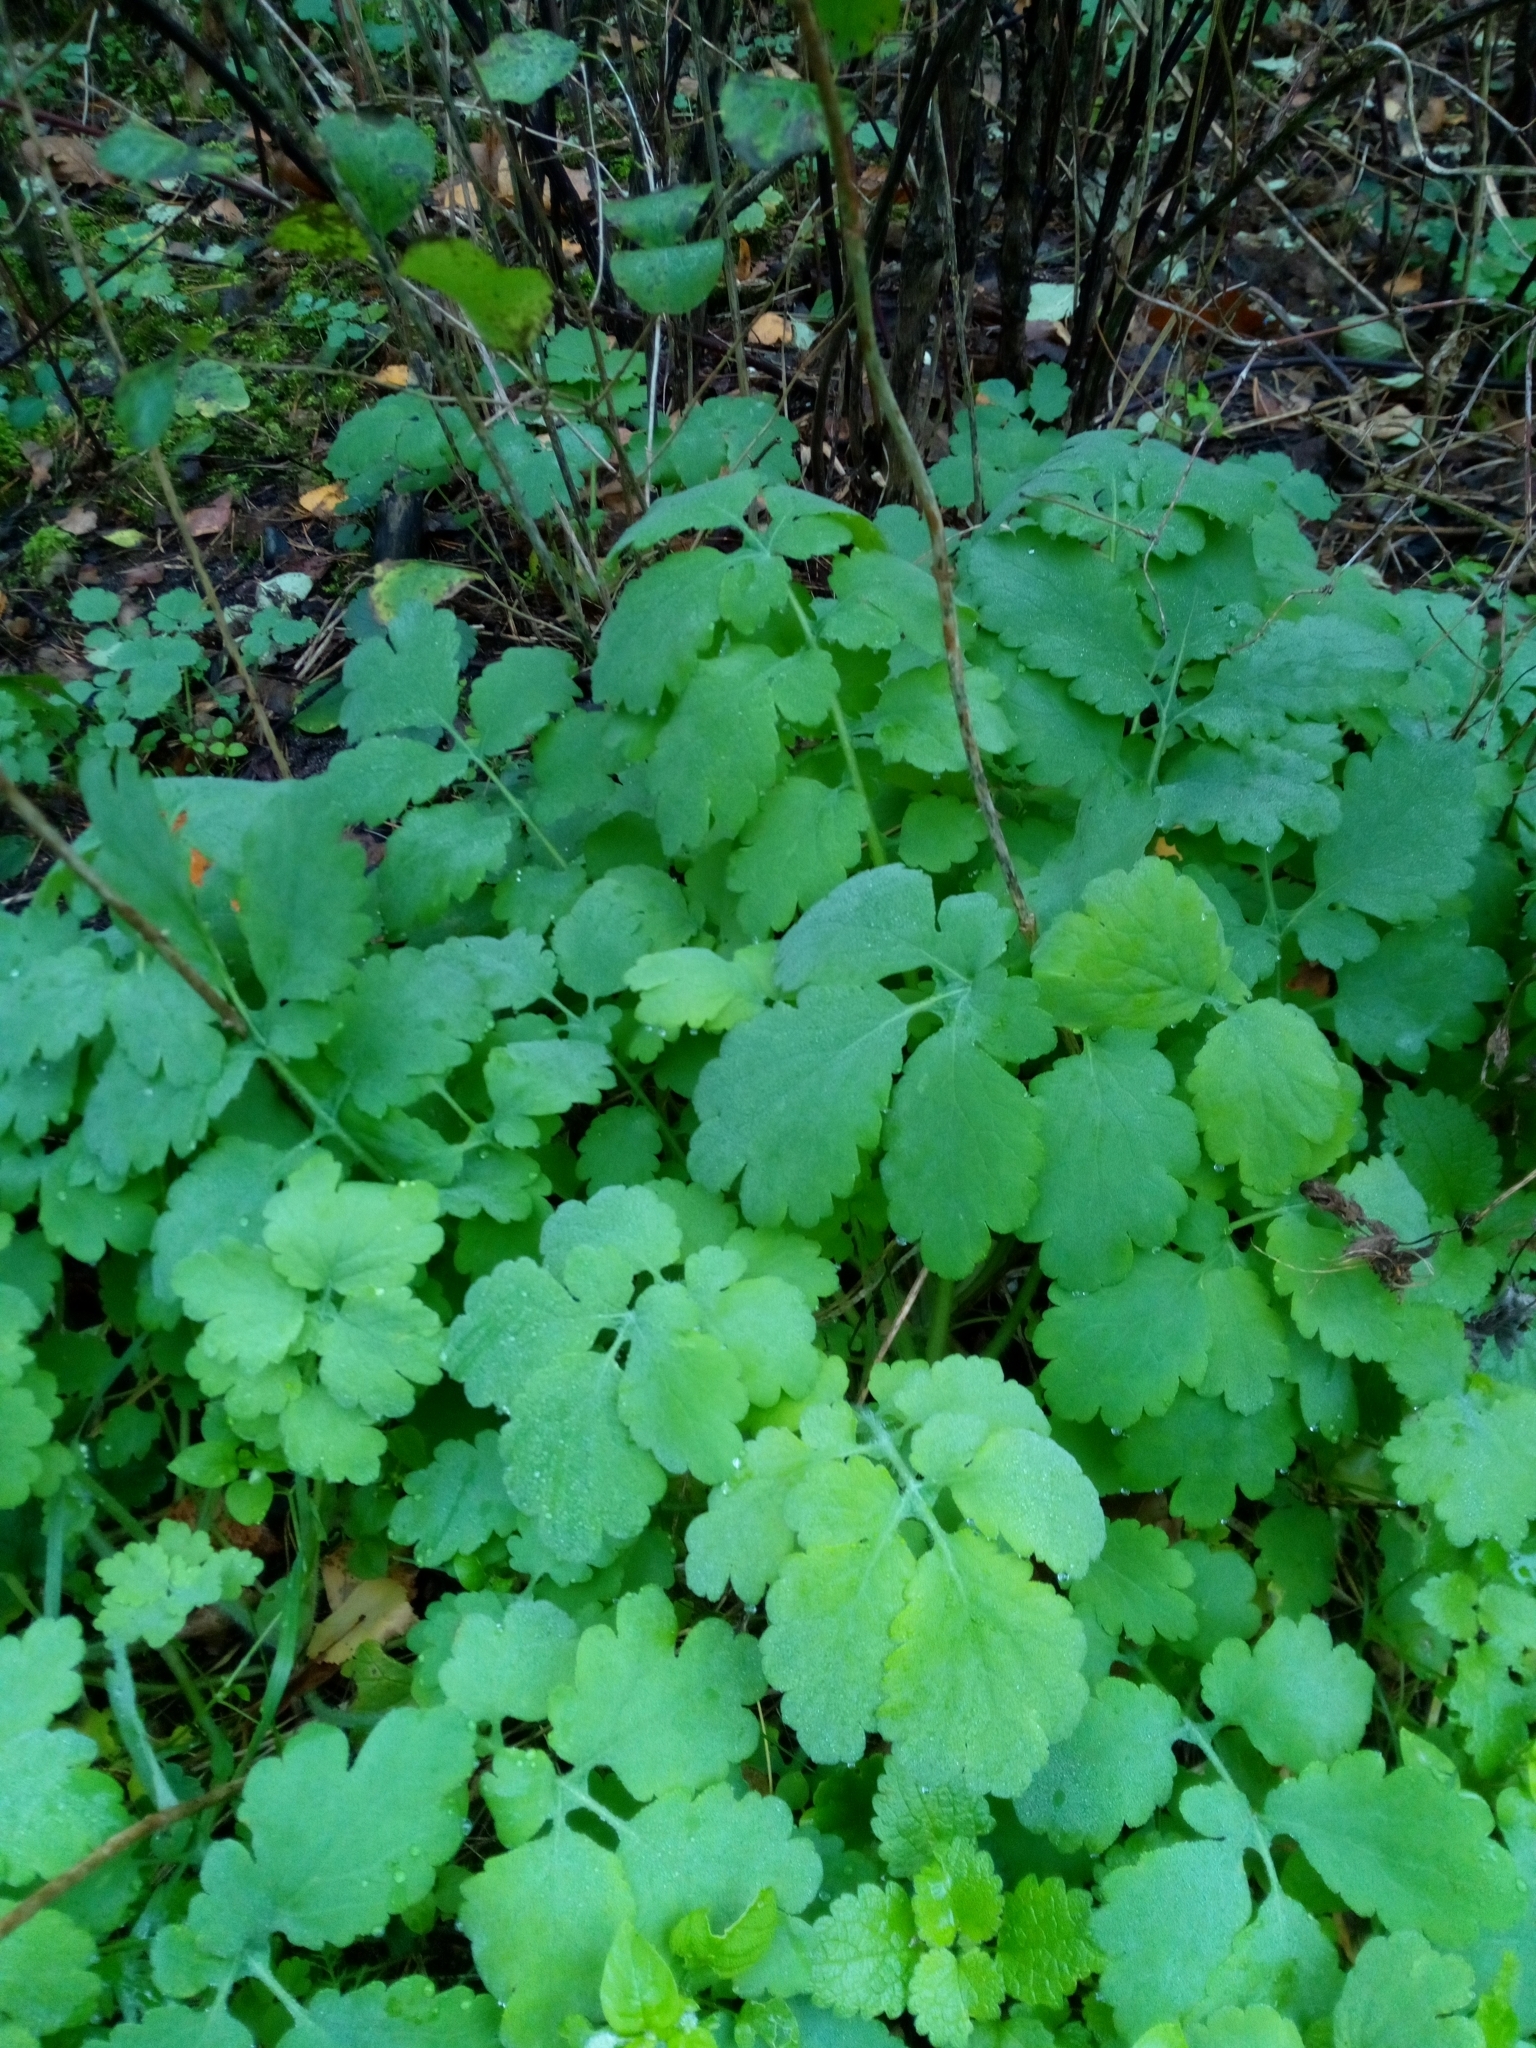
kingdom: Plantae
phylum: Tracheophyta
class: Magnoliopsida
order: Ranunculales
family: Papaveraceae
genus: Chelidonium
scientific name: Chelidonium majus
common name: Greater celandine
